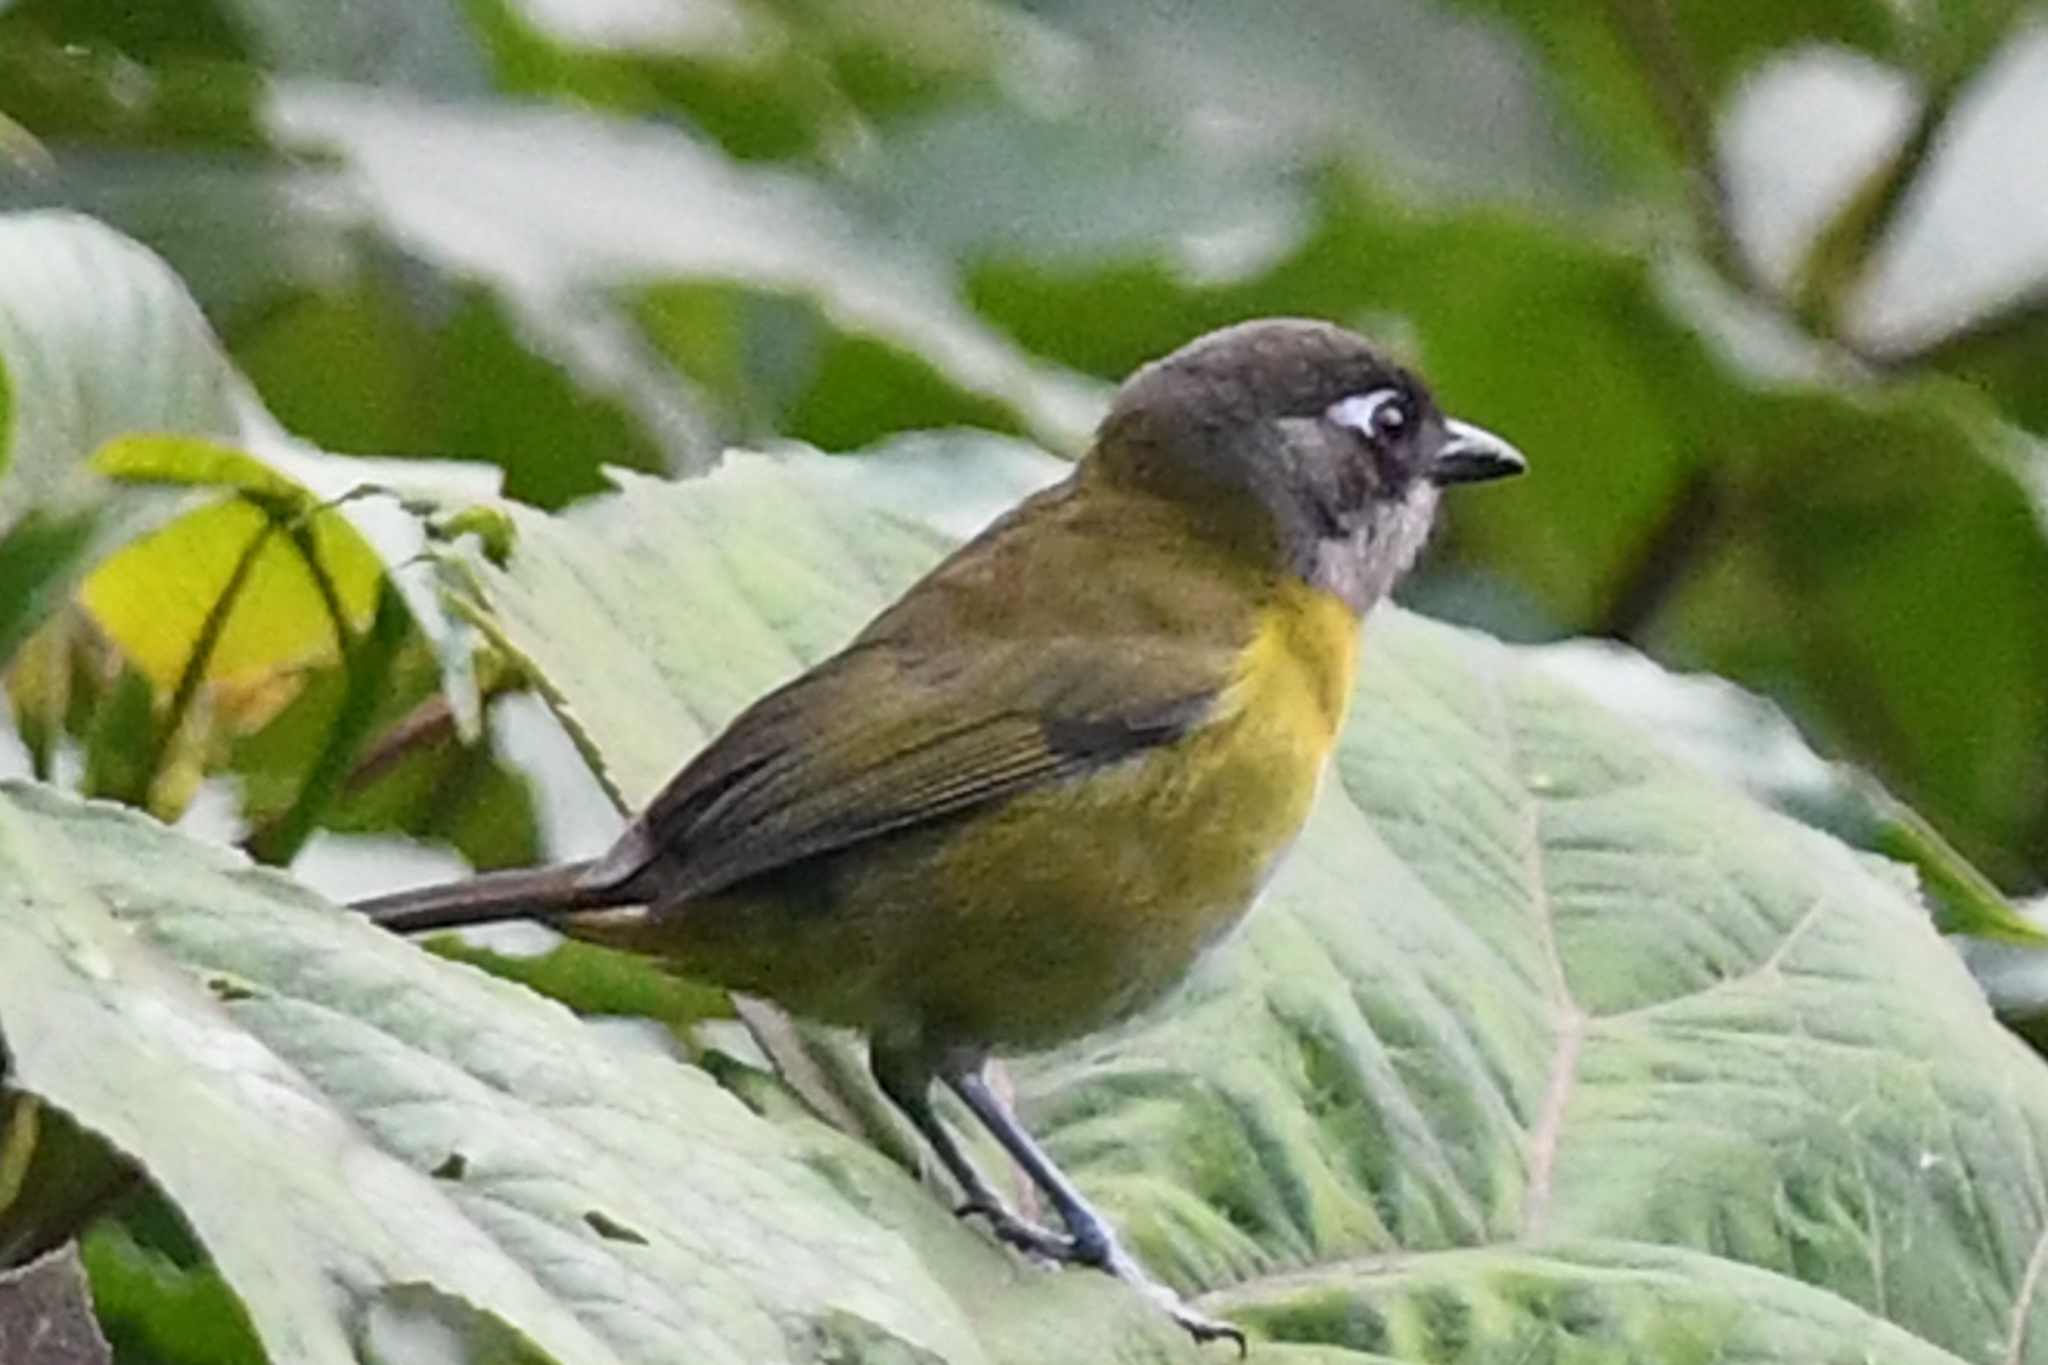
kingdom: Animalia
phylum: Chordata
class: Aves
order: Passeriformes
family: Passerellidae
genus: Chlorospingus
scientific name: Chlorospingus flavopectus
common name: Common chlorospingus
